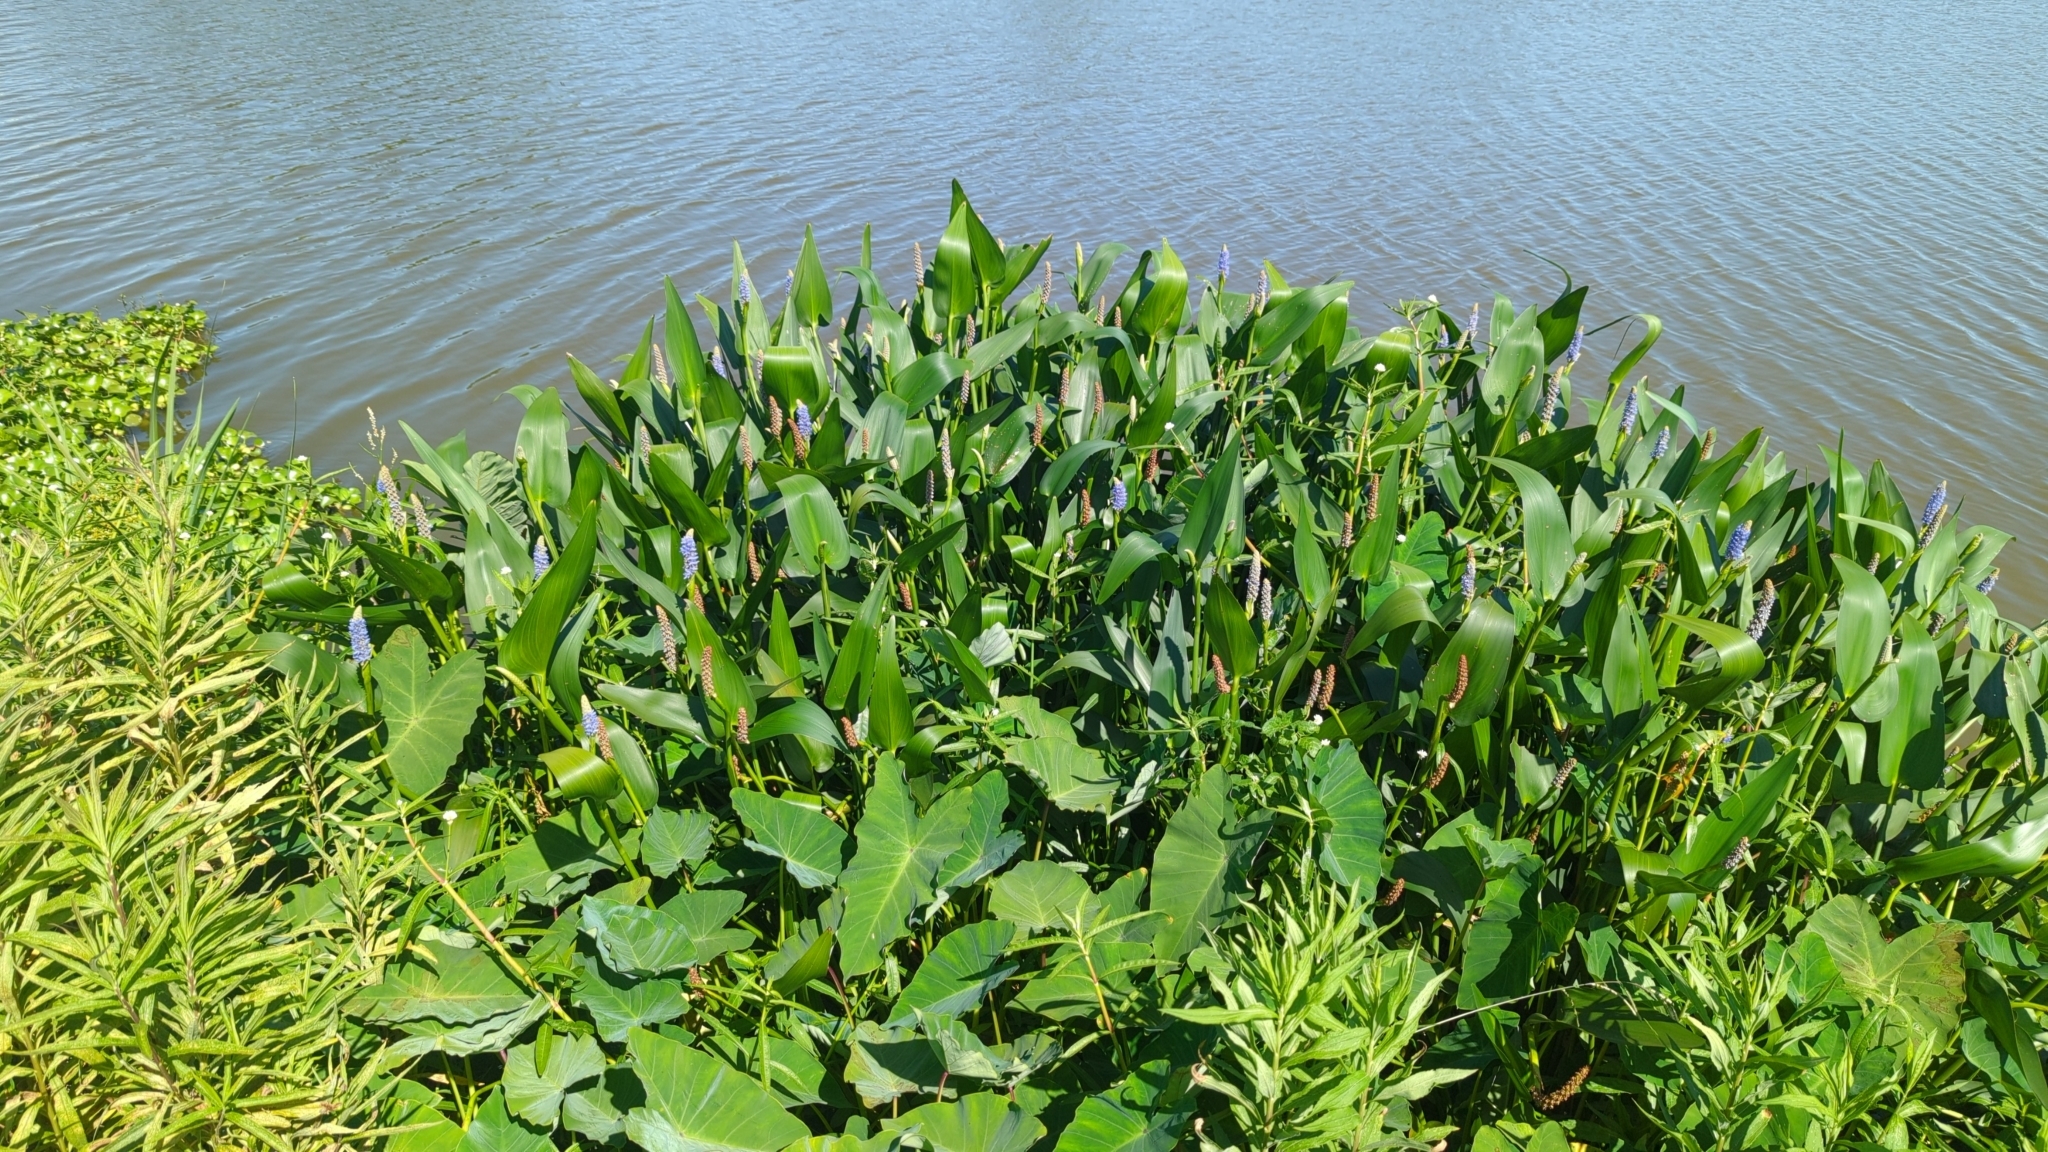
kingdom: Plantae
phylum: Tracheophyta
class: Liliopsida
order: Commelinales
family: Pontederiaceae
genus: Pontederia
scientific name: Pontederia cordata
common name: Pickerelweed
